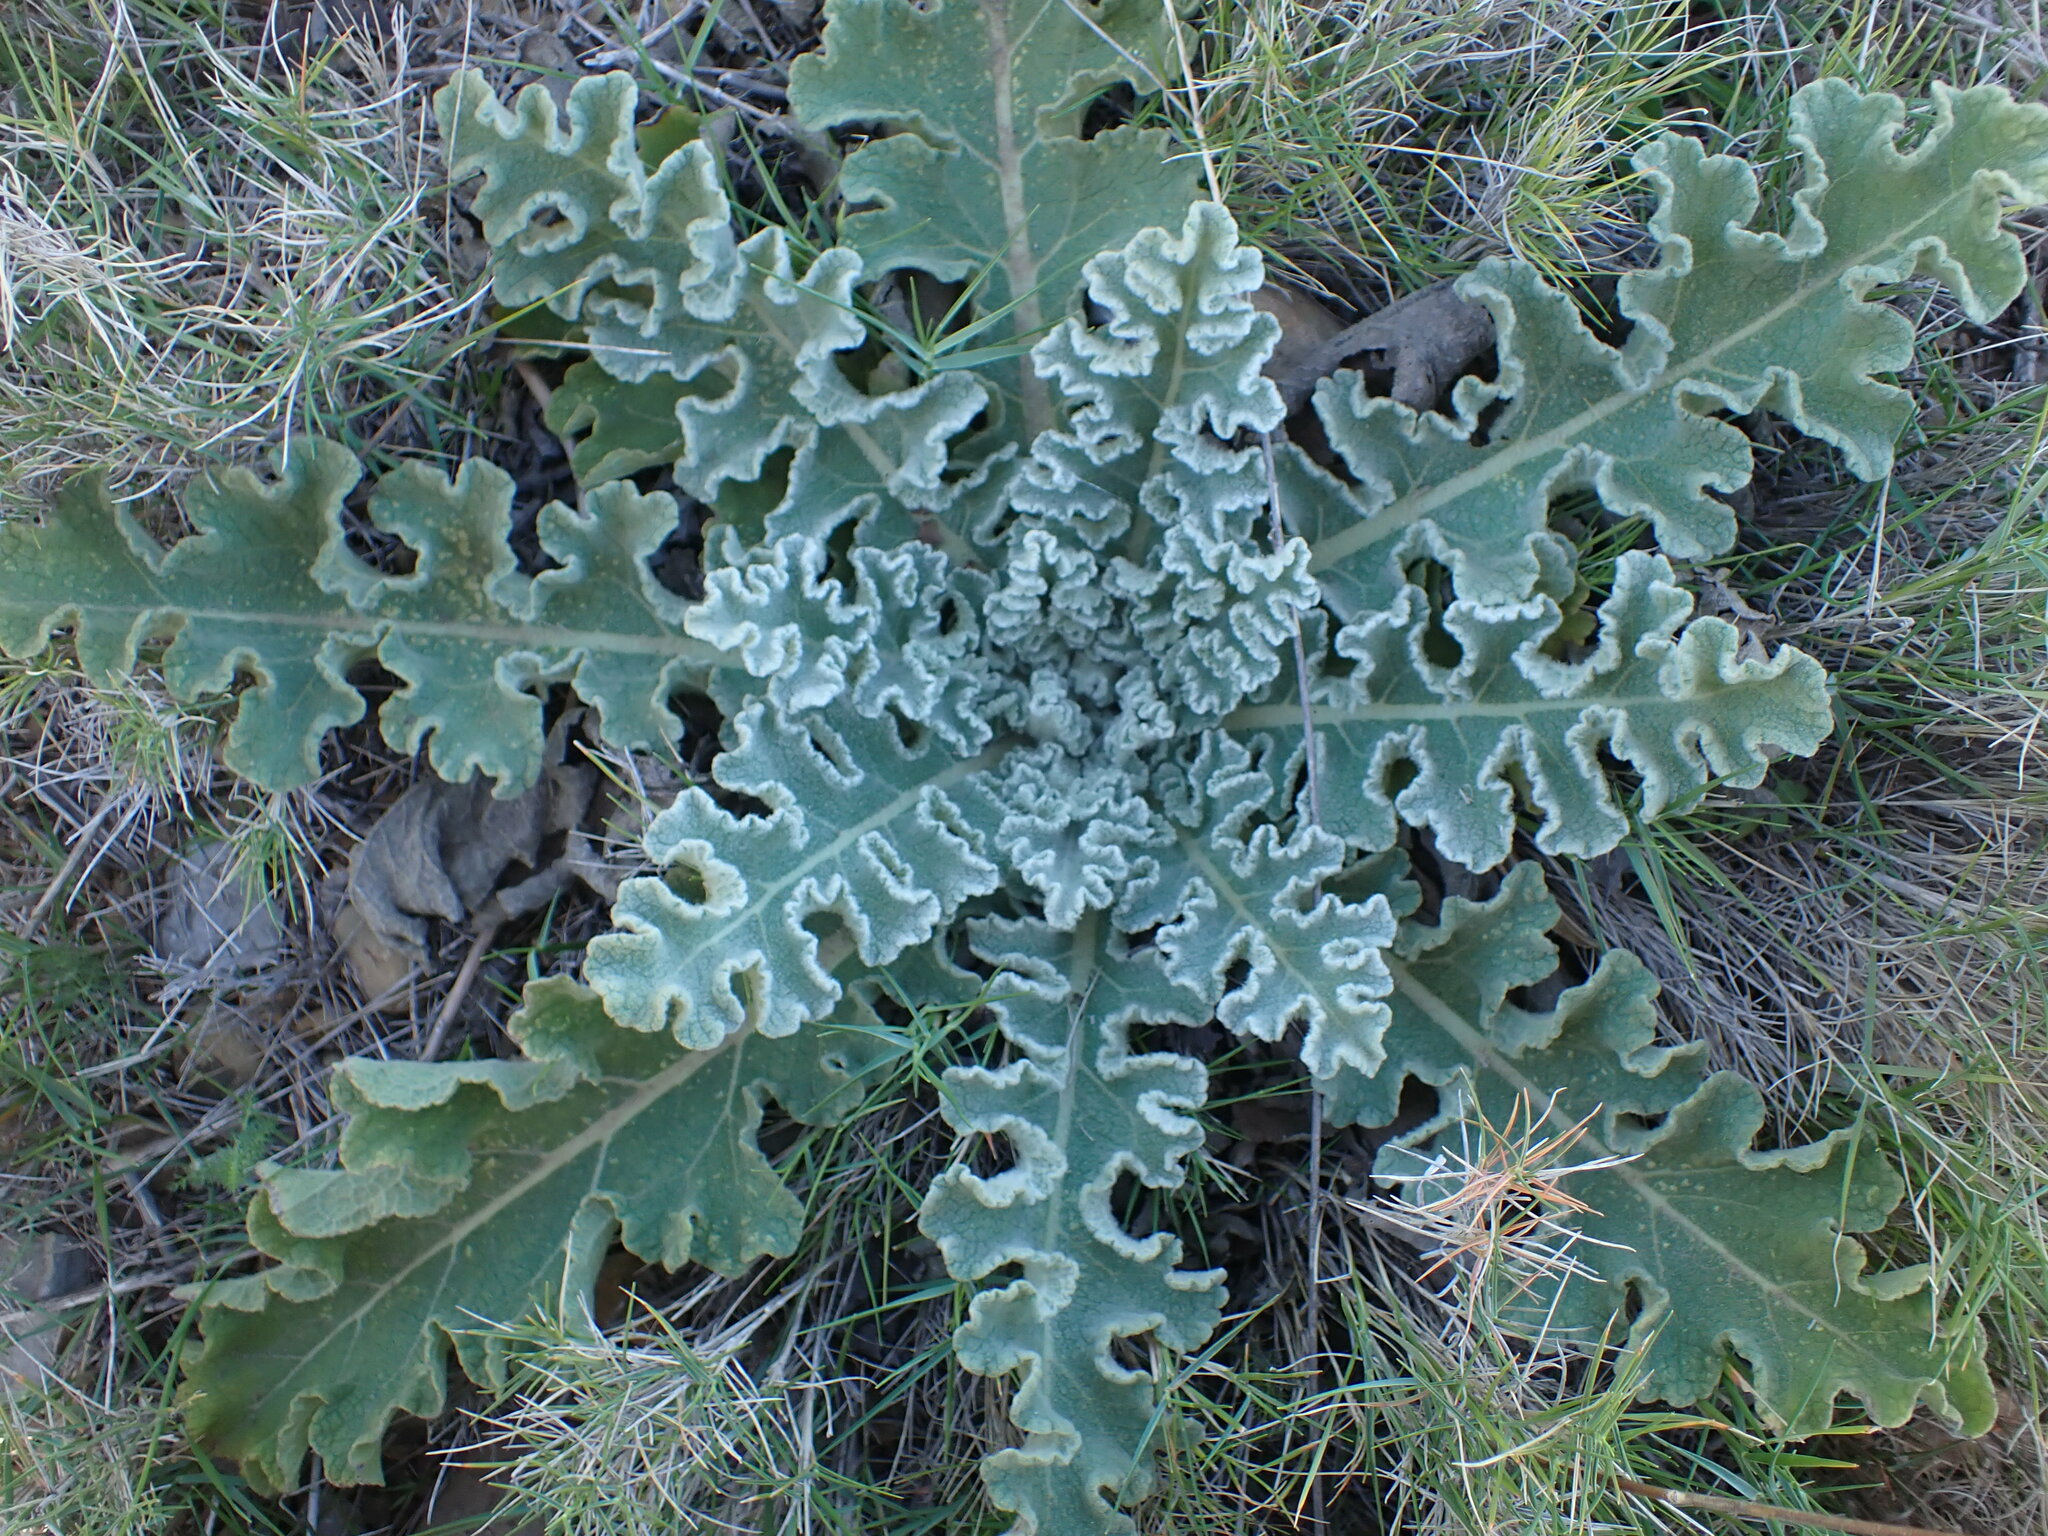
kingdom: Plantae
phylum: Tracheophyta
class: Magnoliopsida
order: Lamiales
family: Scrophulariaceae
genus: Verbascum
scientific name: Verbascum sinuatum
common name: Wavyleaf mullein
